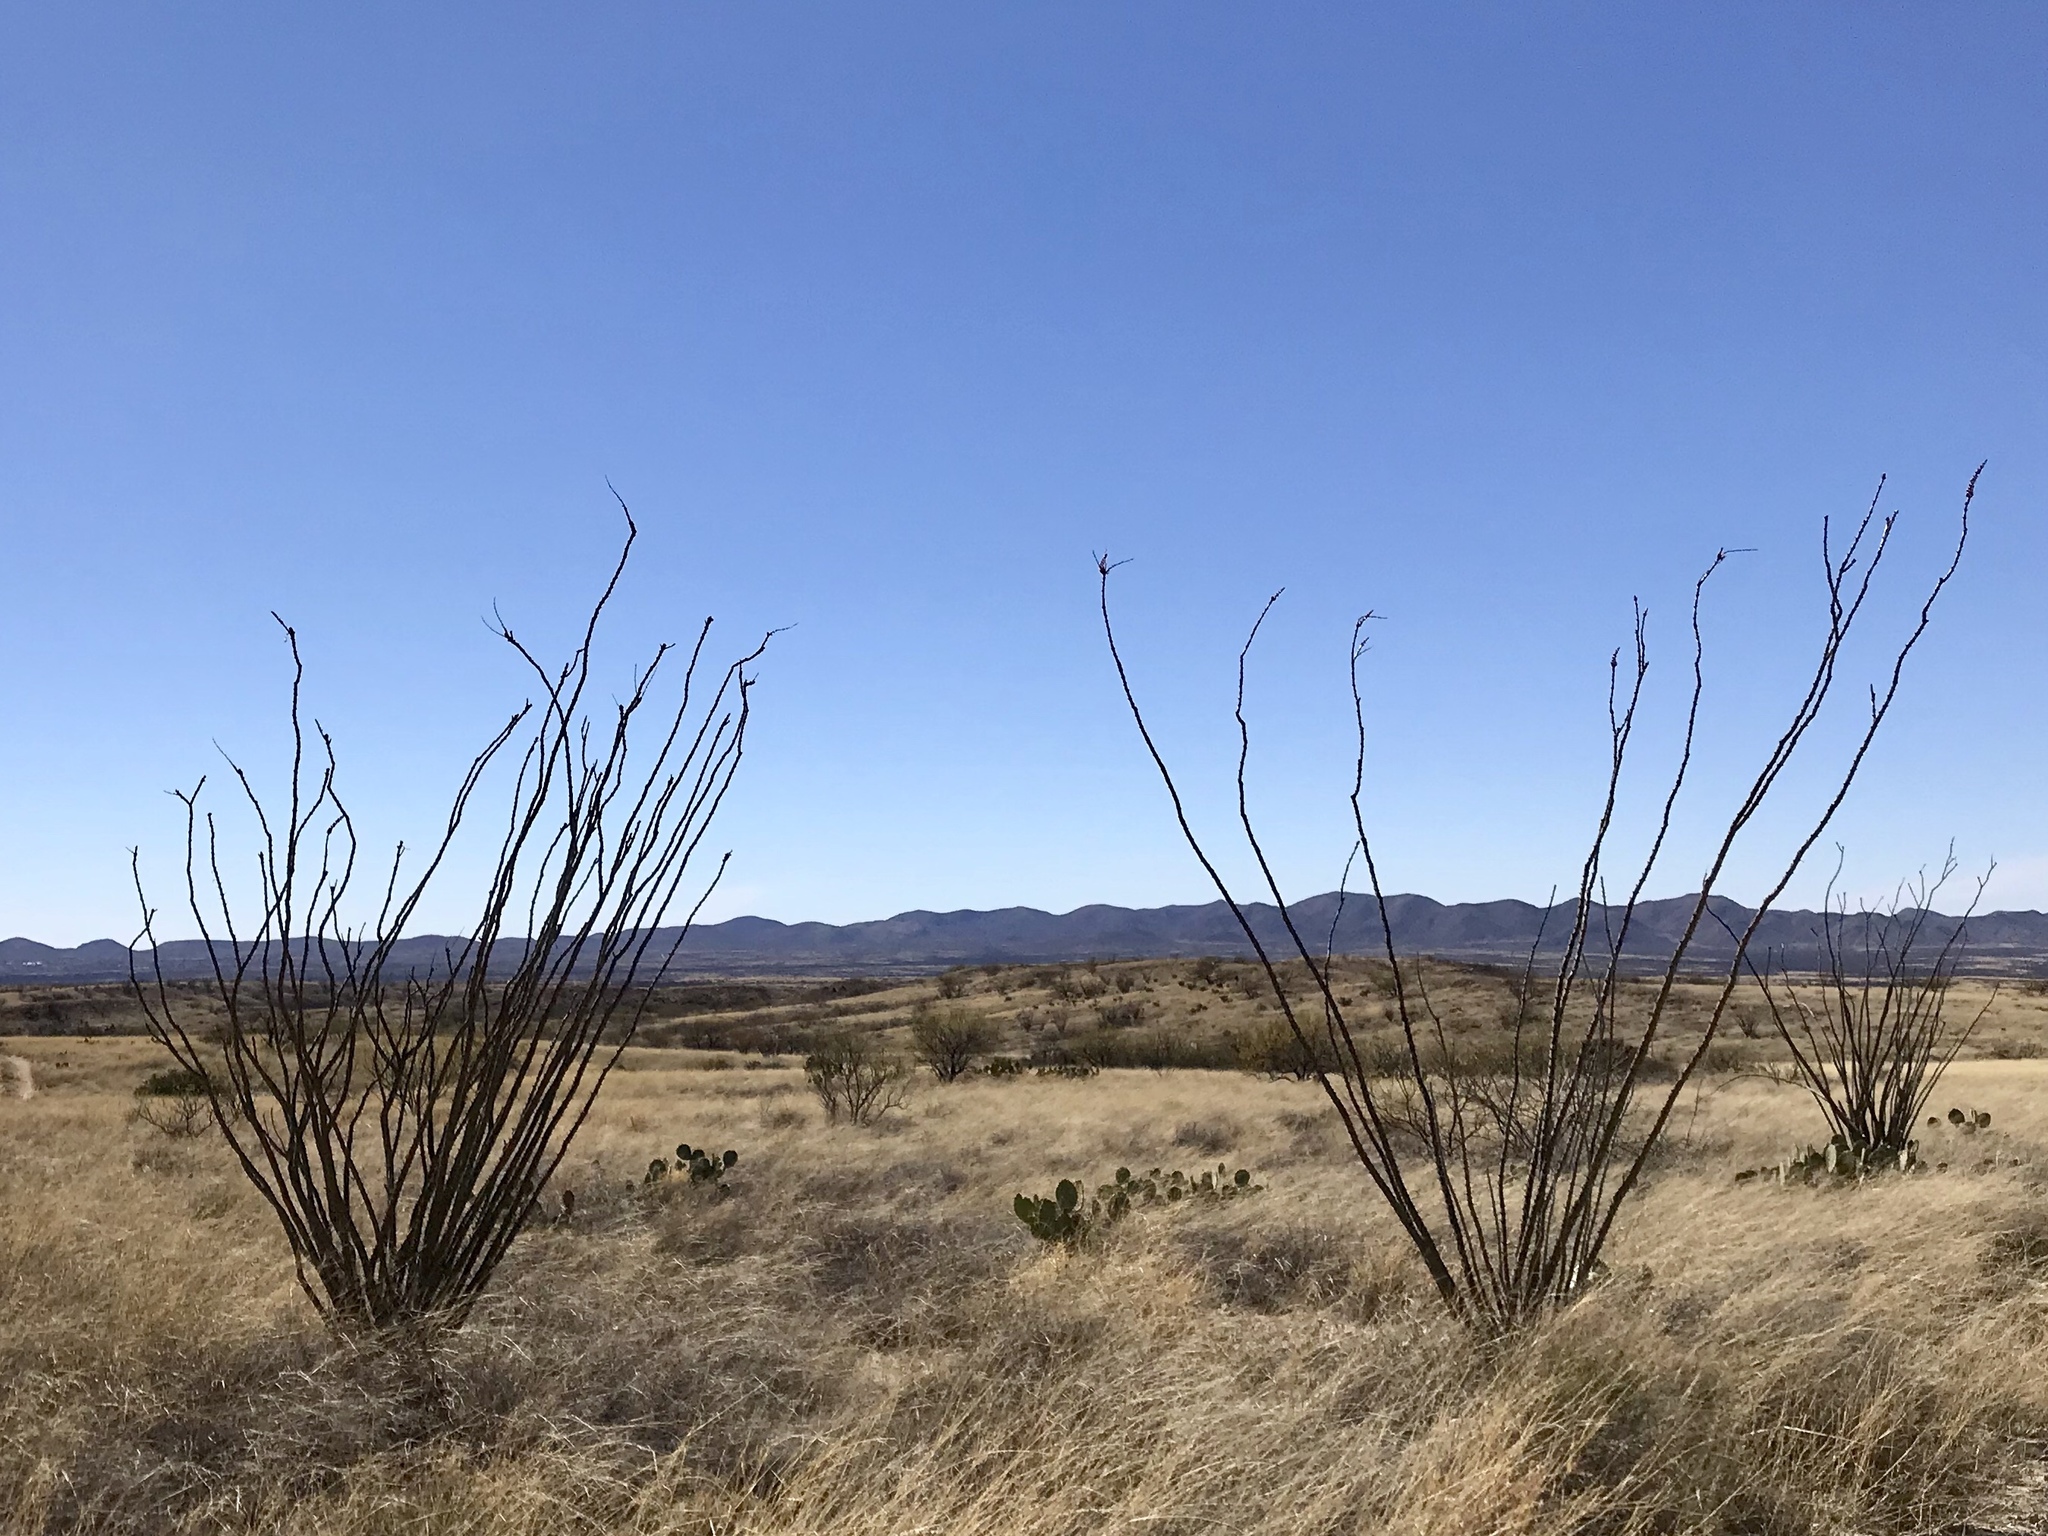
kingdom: Plantae
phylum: Tracheophyta
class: Magnoliopsida
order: Ericales
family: Fouquieriaceae
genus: Fouquieria
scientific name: Fouquieria splendens
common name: Vine-cactus
